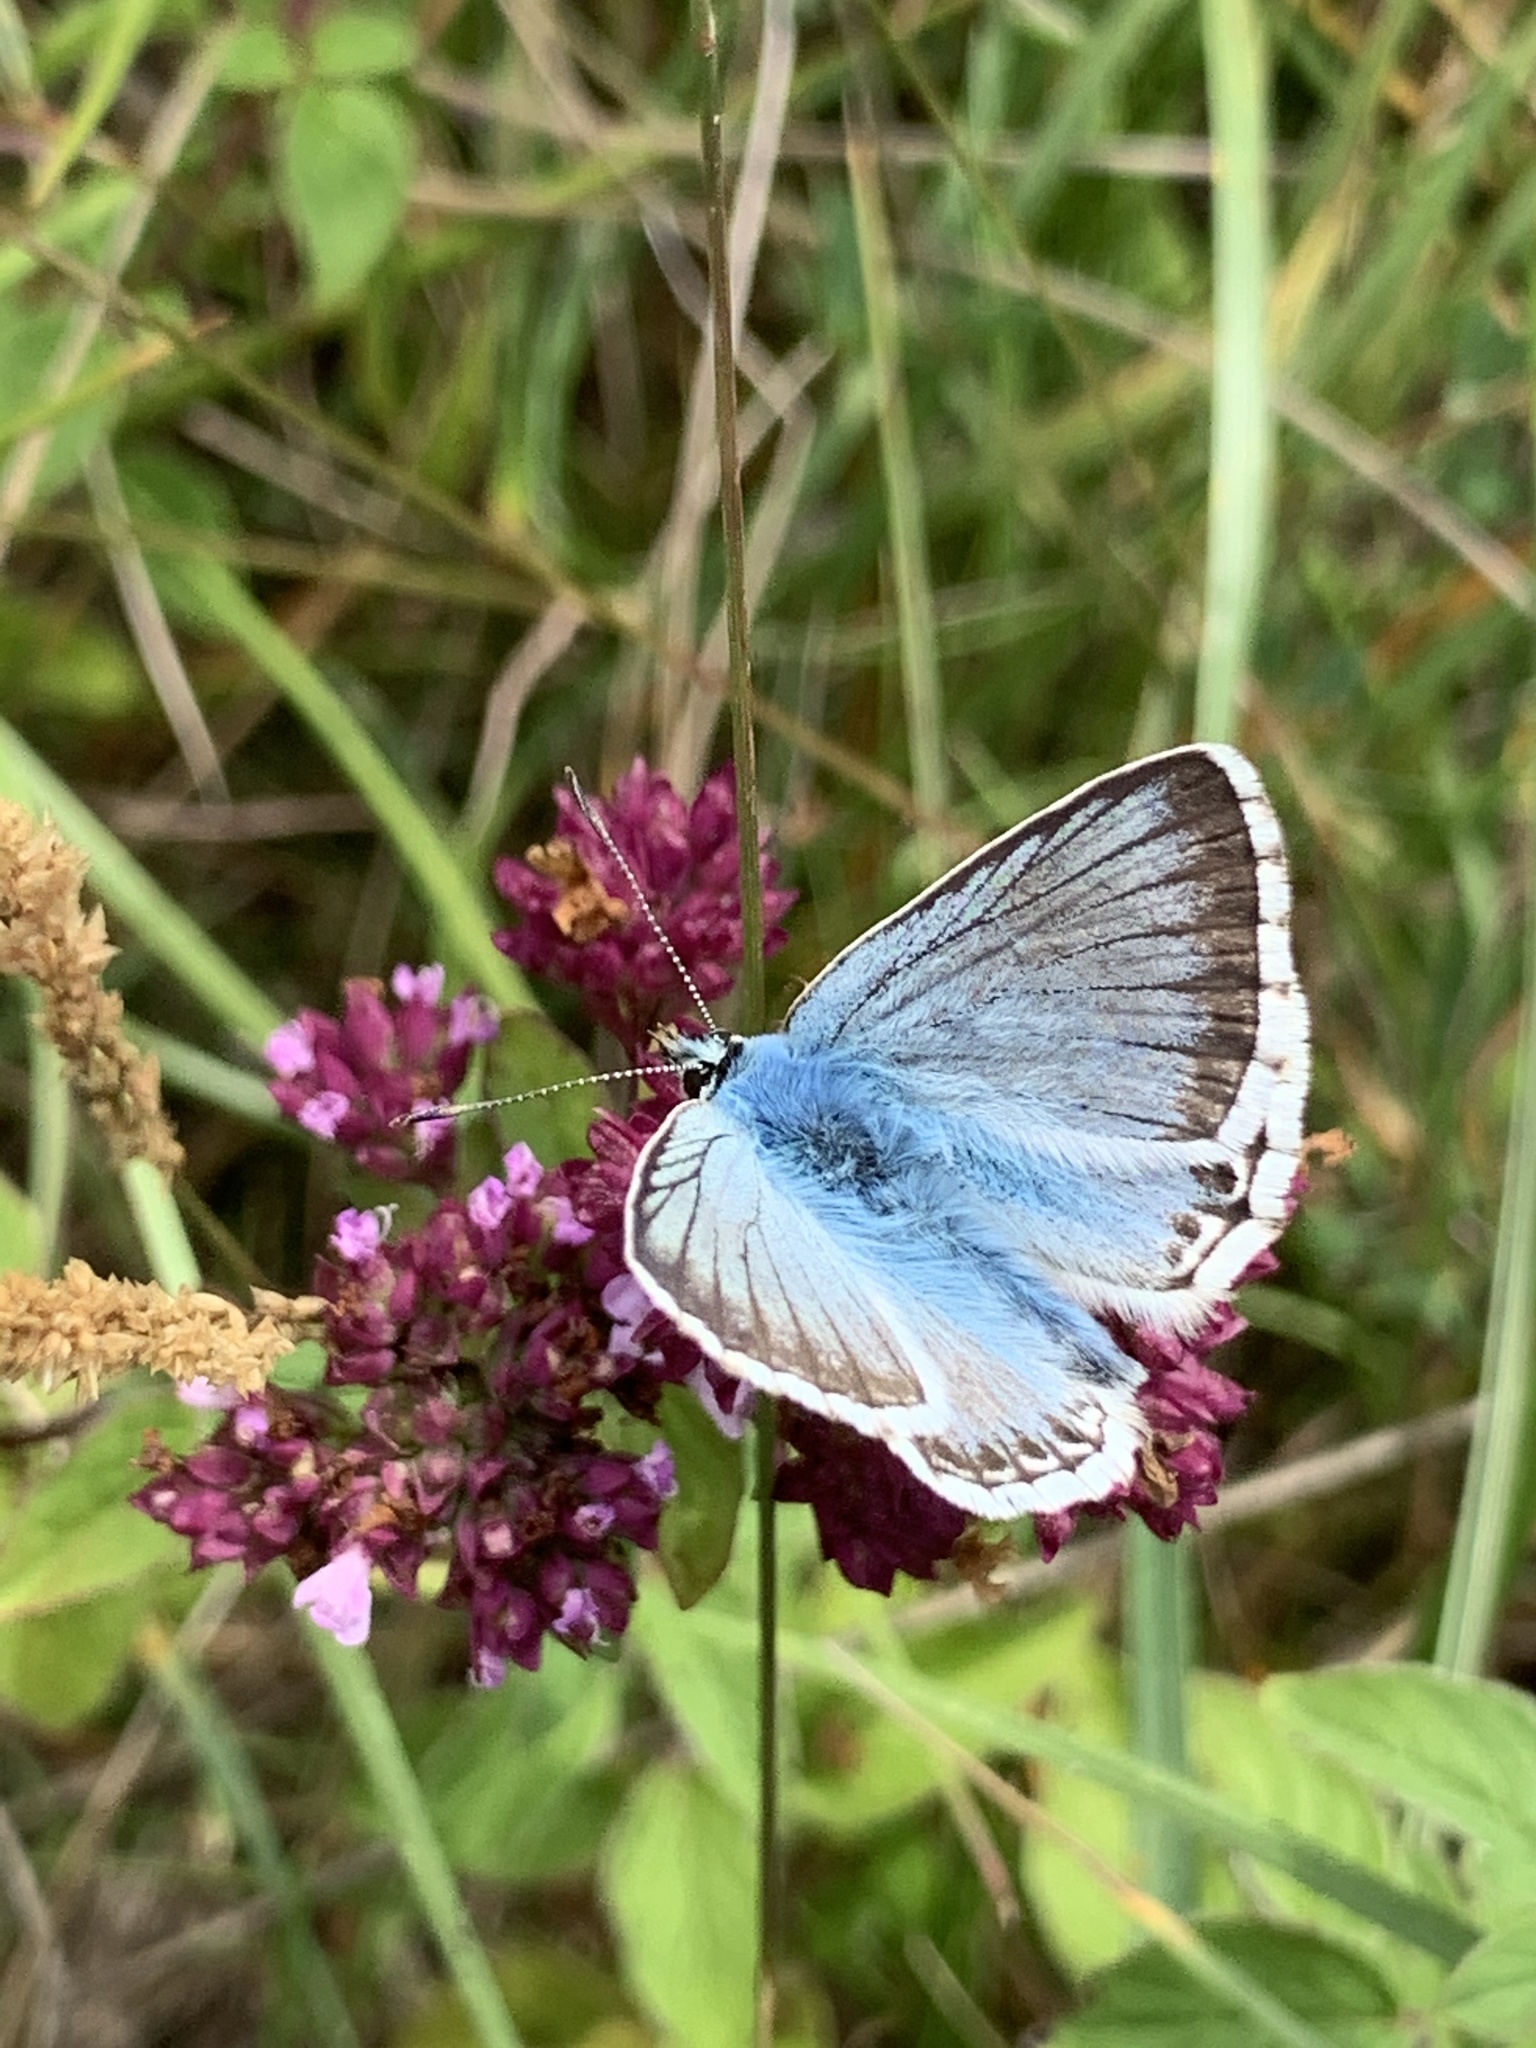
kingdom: Animalia
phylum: Arthropoda
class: Insecta
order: Lepidoptera
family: Lycaenidae
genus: Lysandra
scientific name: Lysandra coridon
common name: Chalkhill blue
